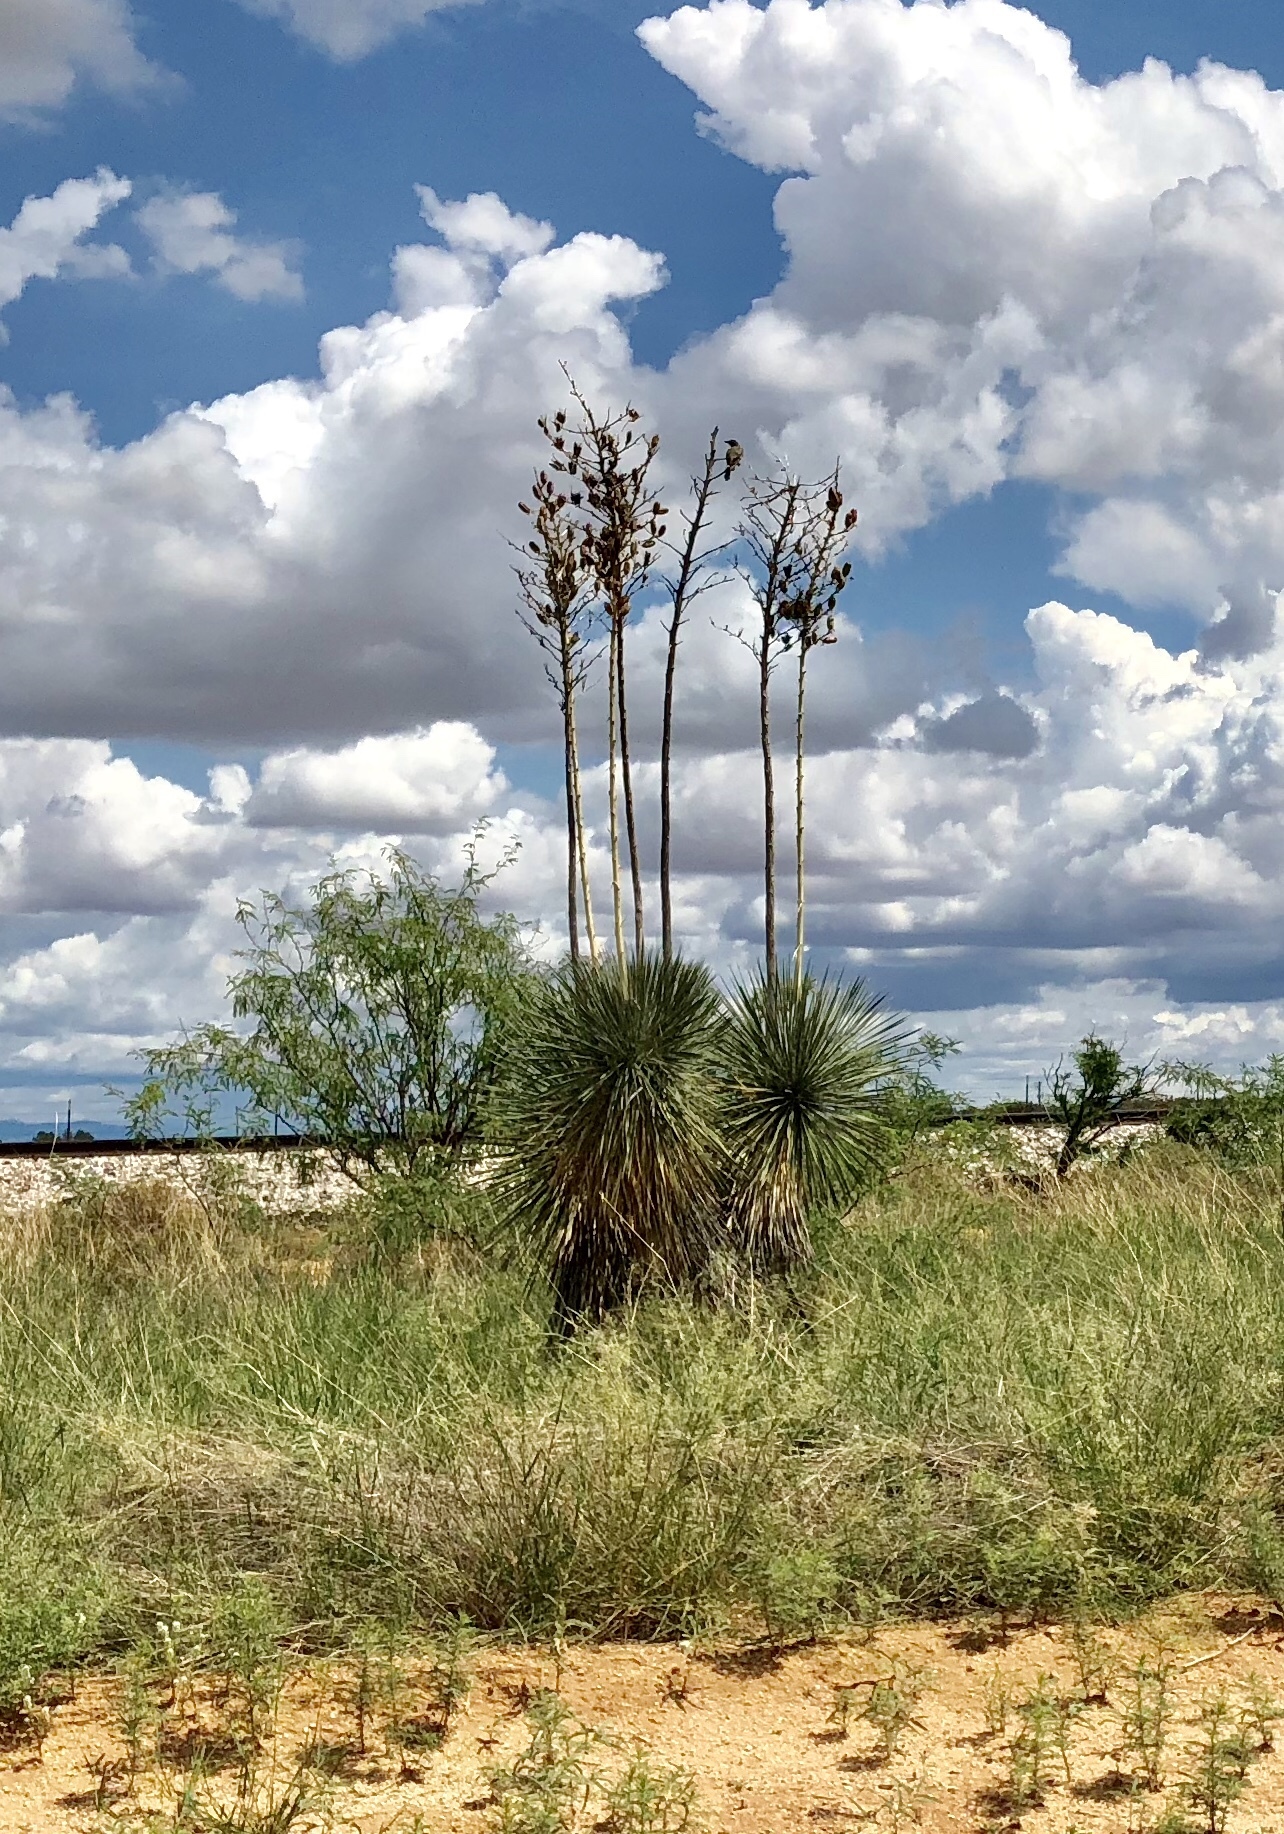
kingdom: Plantae
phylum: Tracheophyta
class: Liliopsida
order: Asparagales
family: Asparagaceae
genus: Yucca
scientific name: Yucca elata
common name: Palmella
